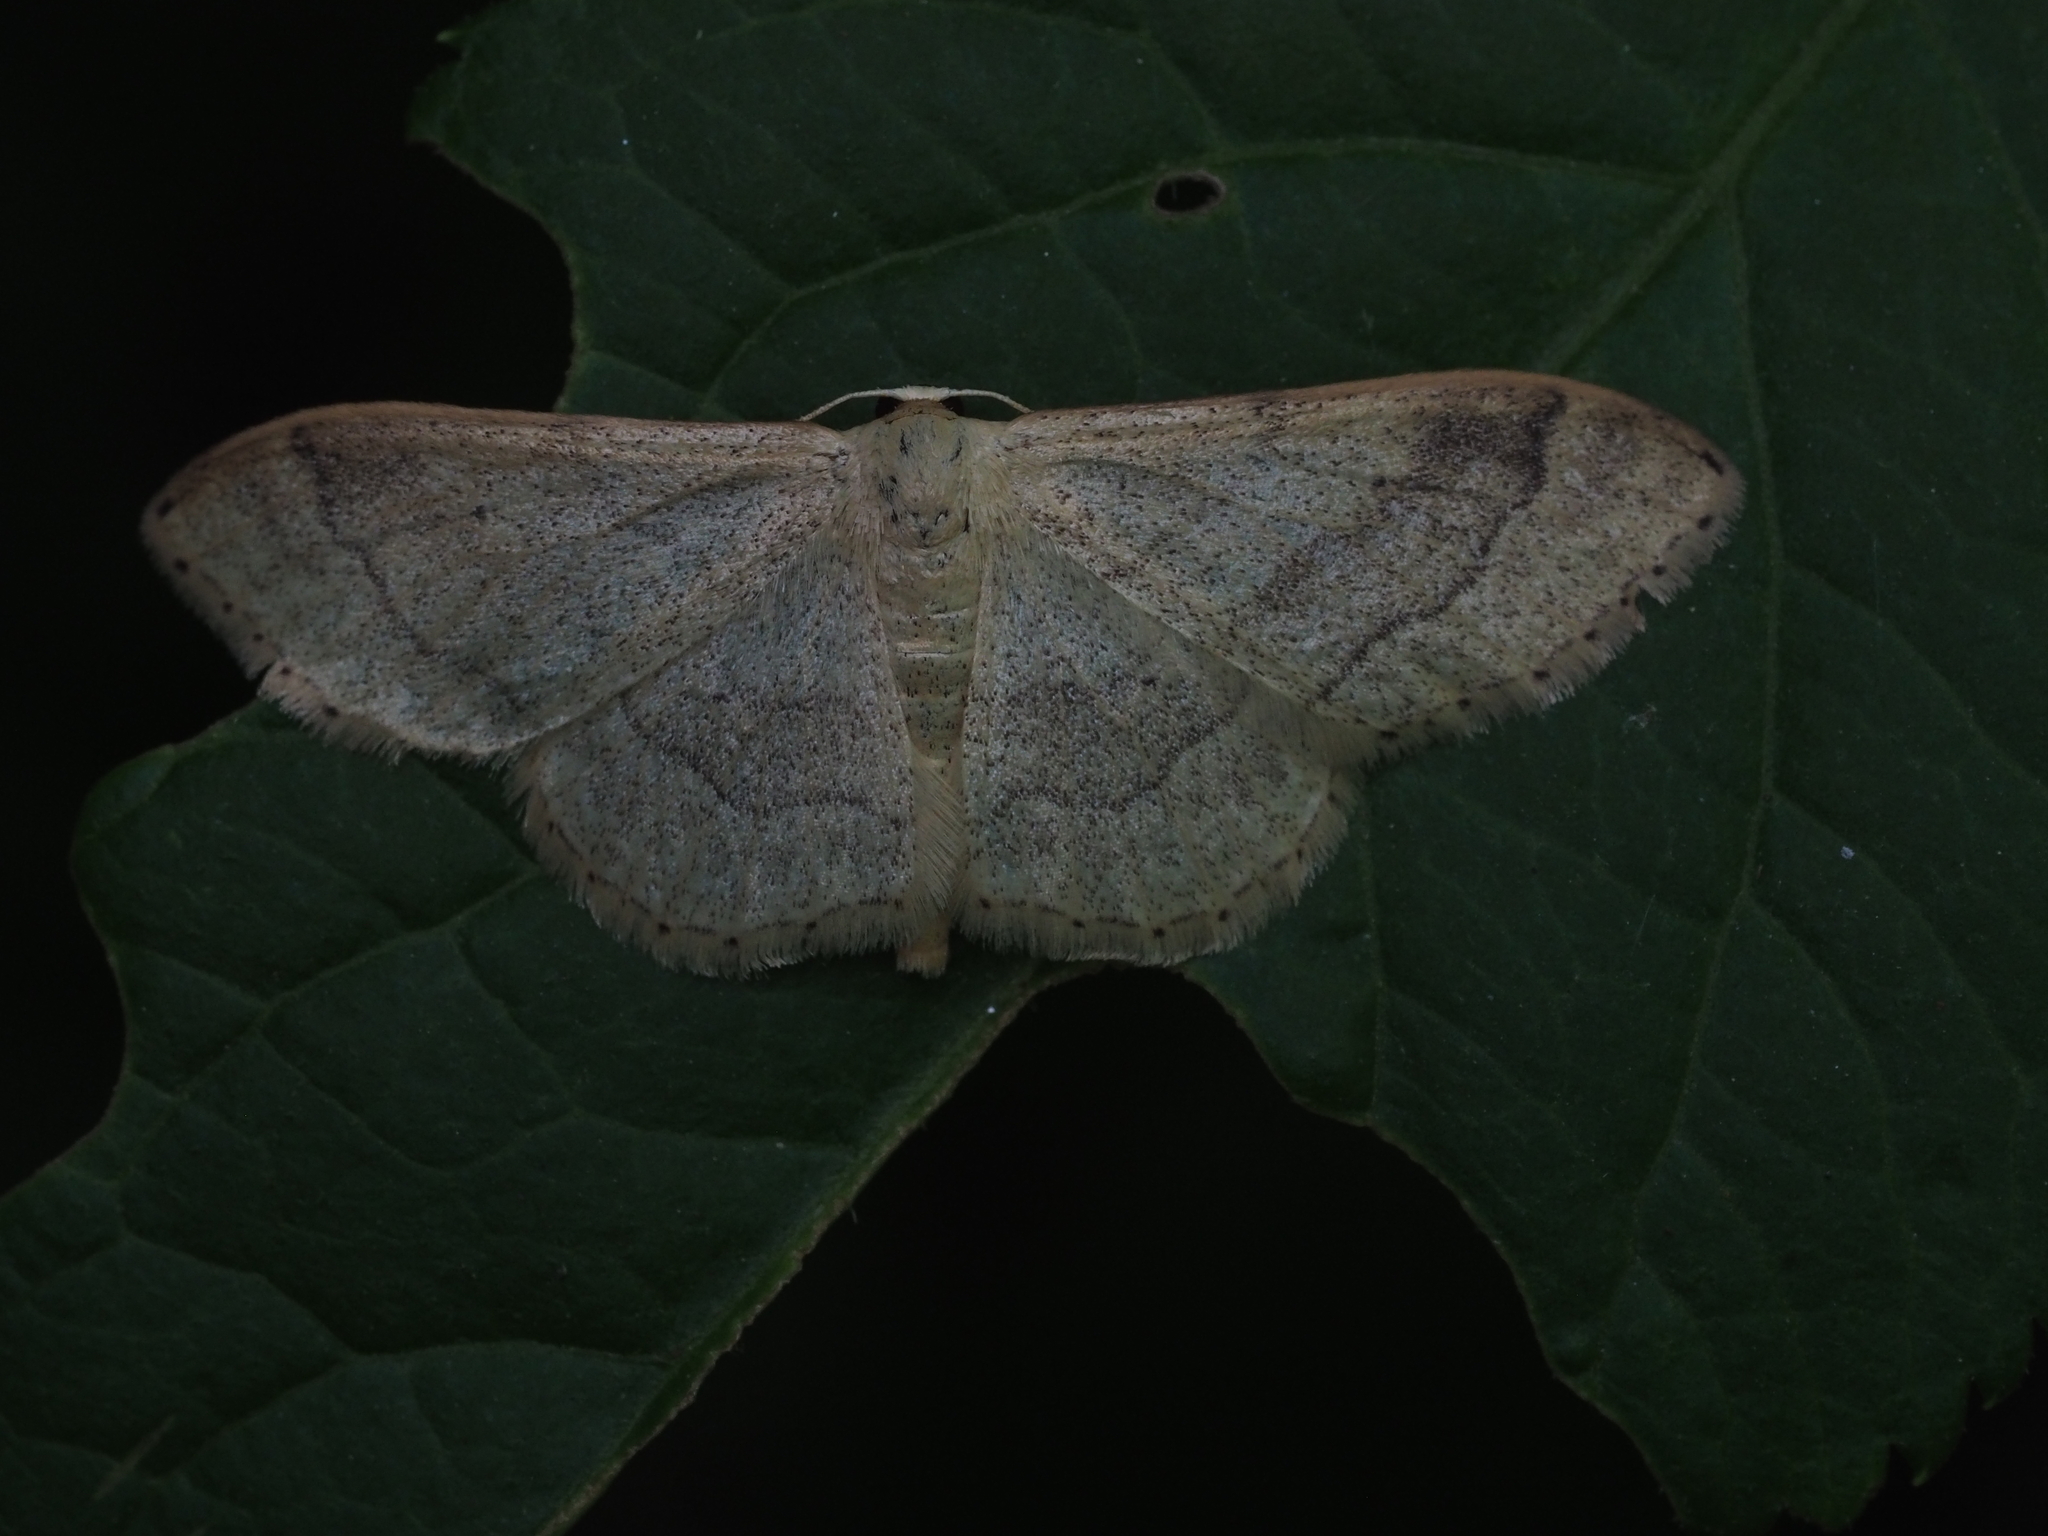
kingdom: Animalia
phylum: Arthropoda
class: Insecta
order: Lepidoptera
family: Geometridae
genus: Idaea
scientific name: Idaea aversata
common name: Riband wave
